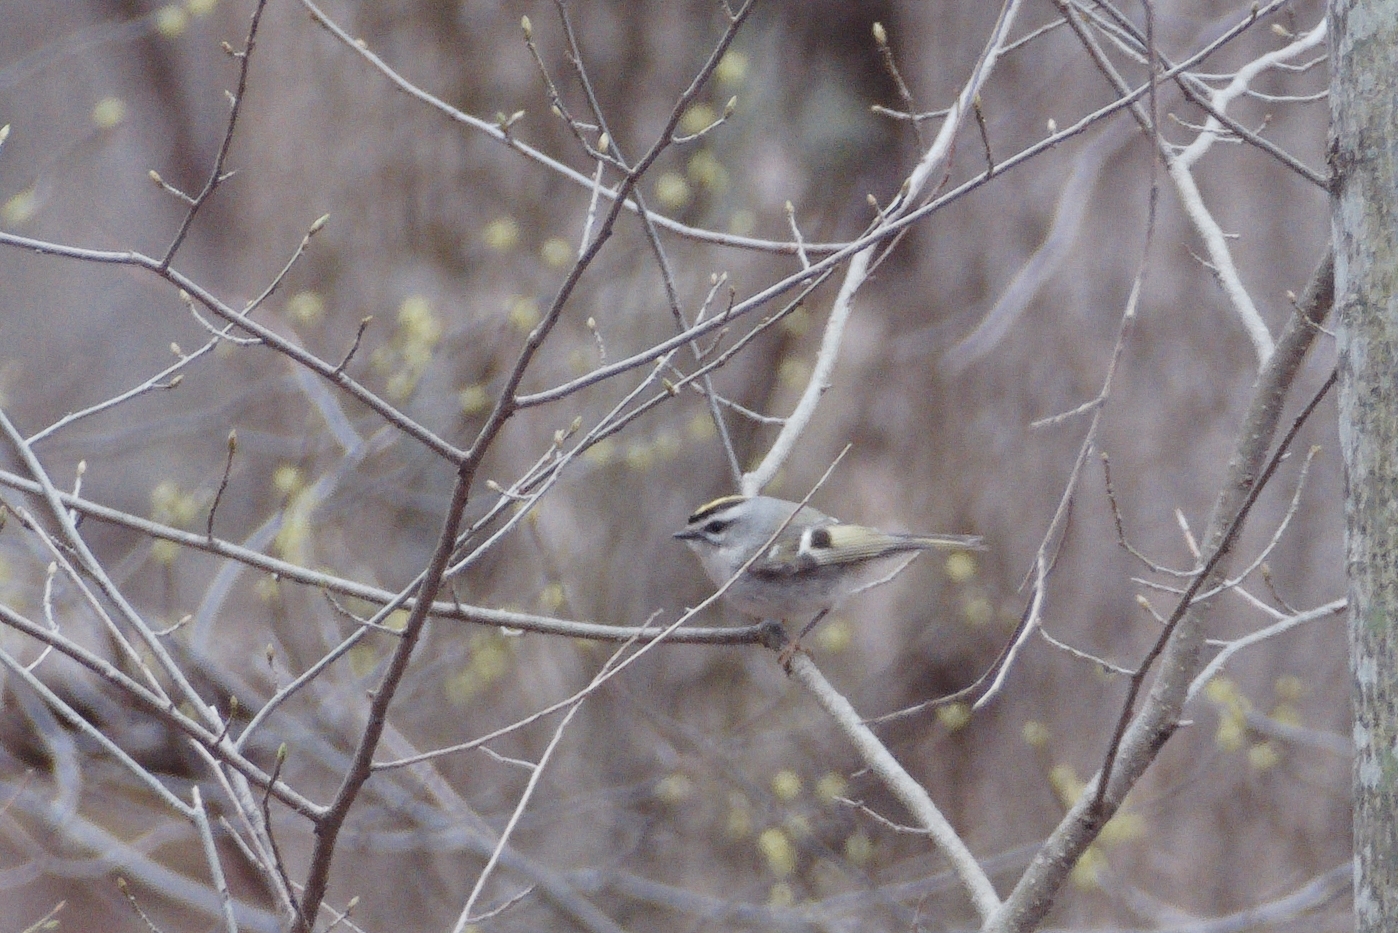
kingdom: Animalia
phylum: Chordata
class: Aves
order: Passeriformes
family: Regulidae
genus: Regulus
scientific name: Regulus satrapa
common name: Golden-crowned kinglet
